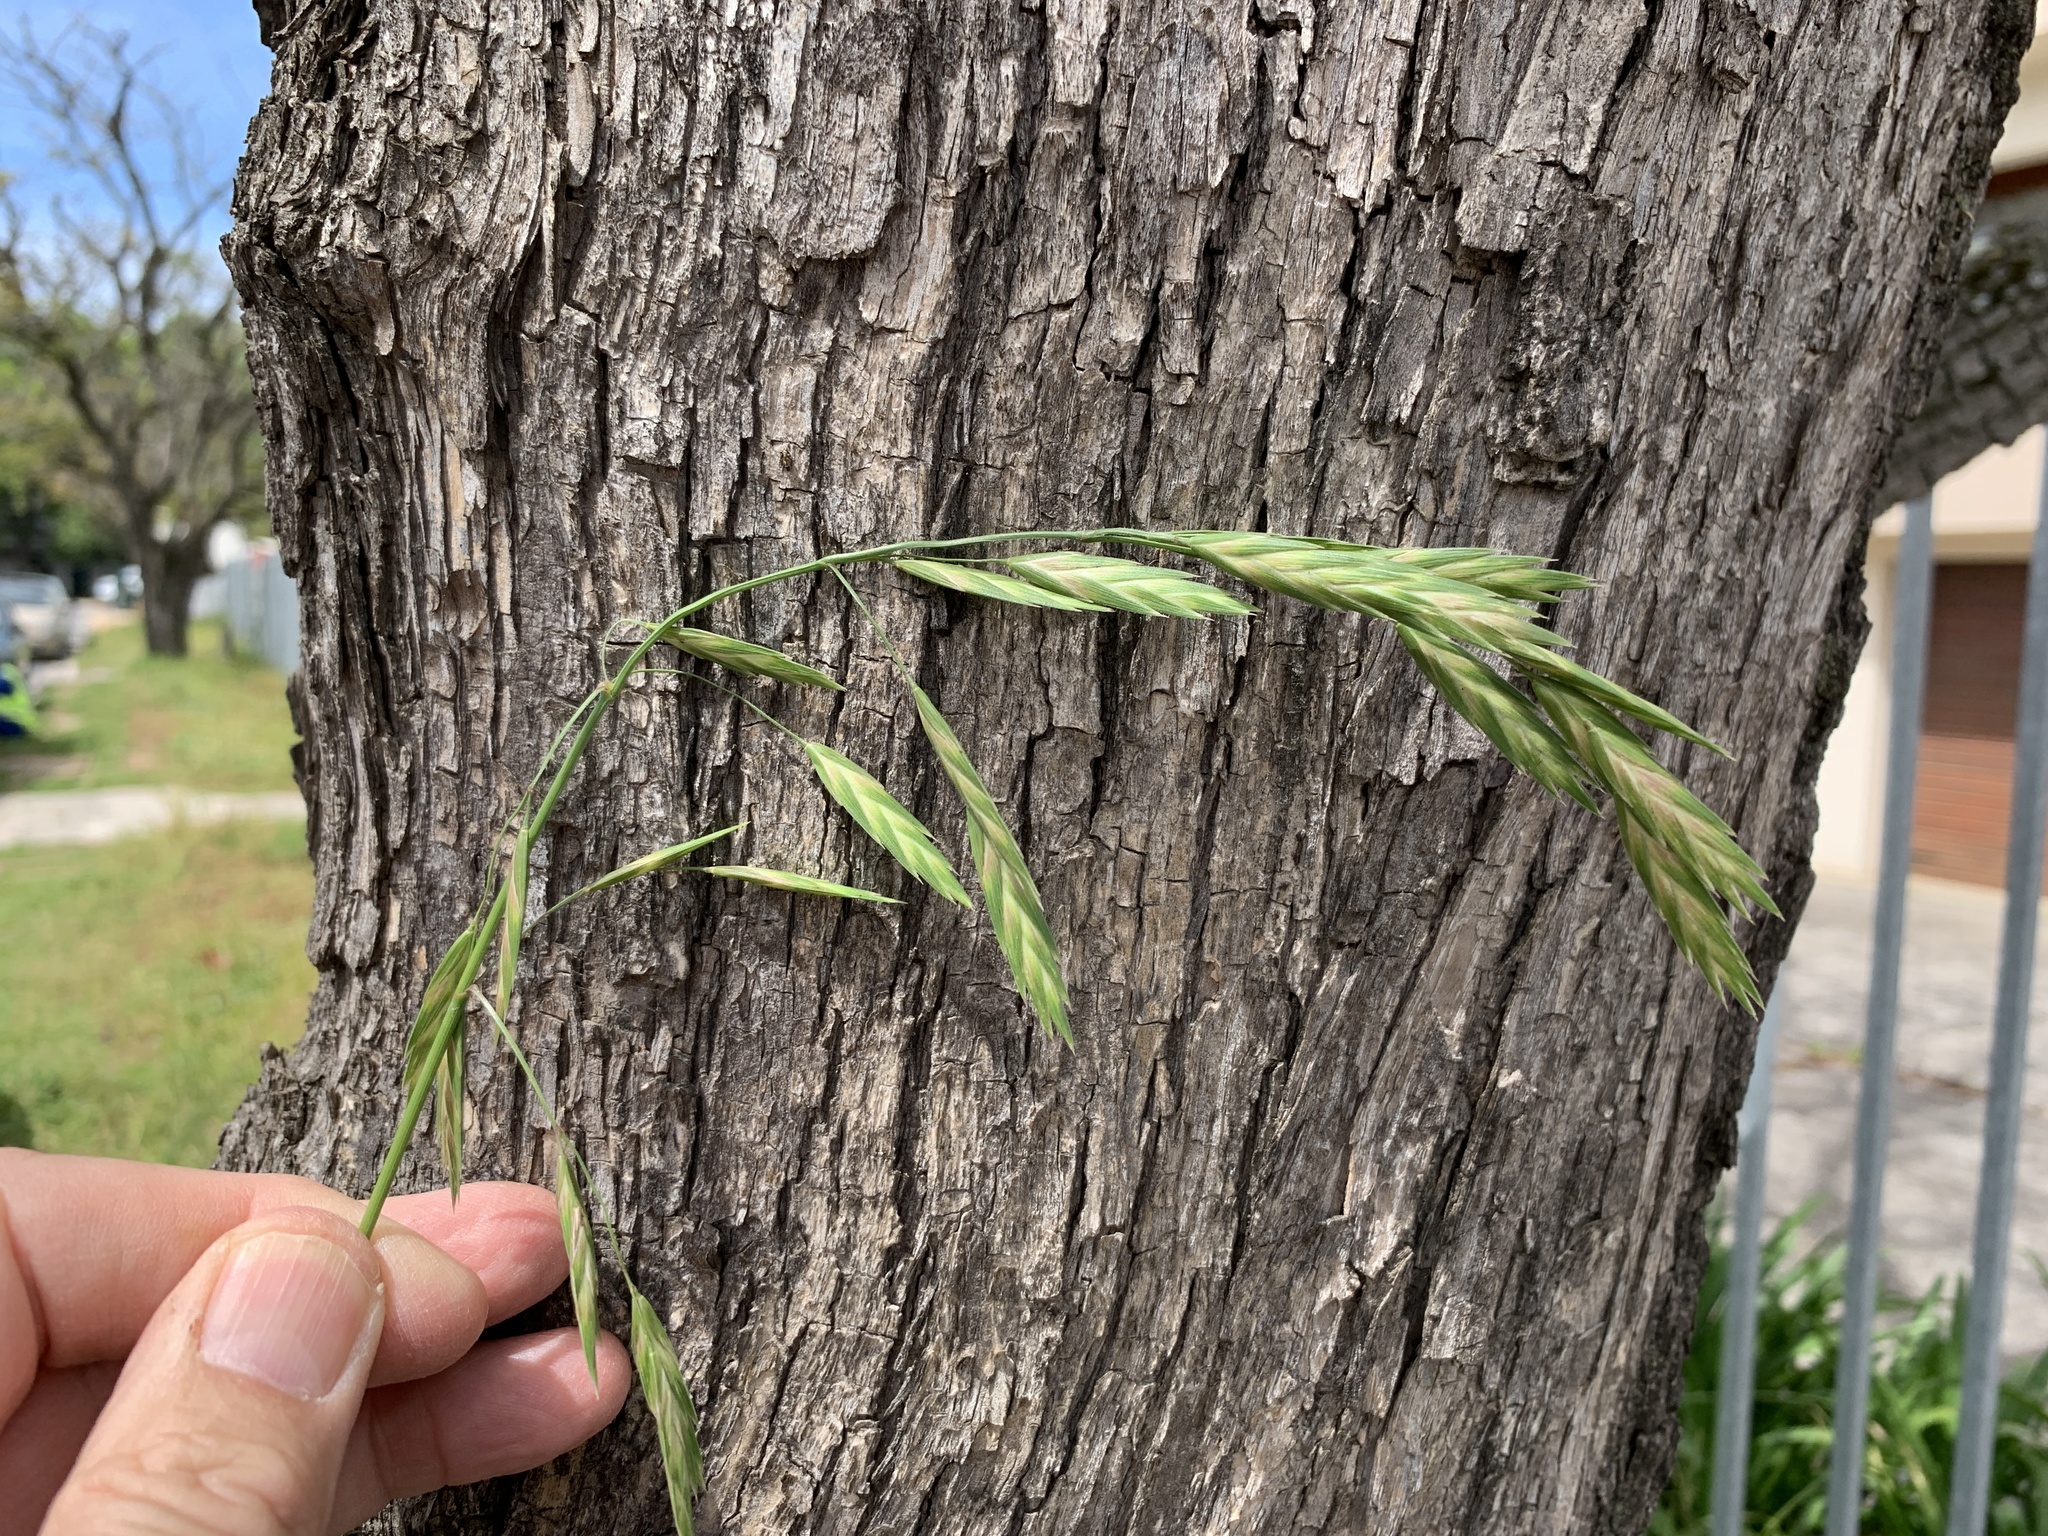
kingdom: Plantae
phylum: Tracheophyta
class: Liliopsida
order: Poales
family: Poaceae
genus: Bromus
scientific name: Bromus catharticus
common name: Rescuegrass
